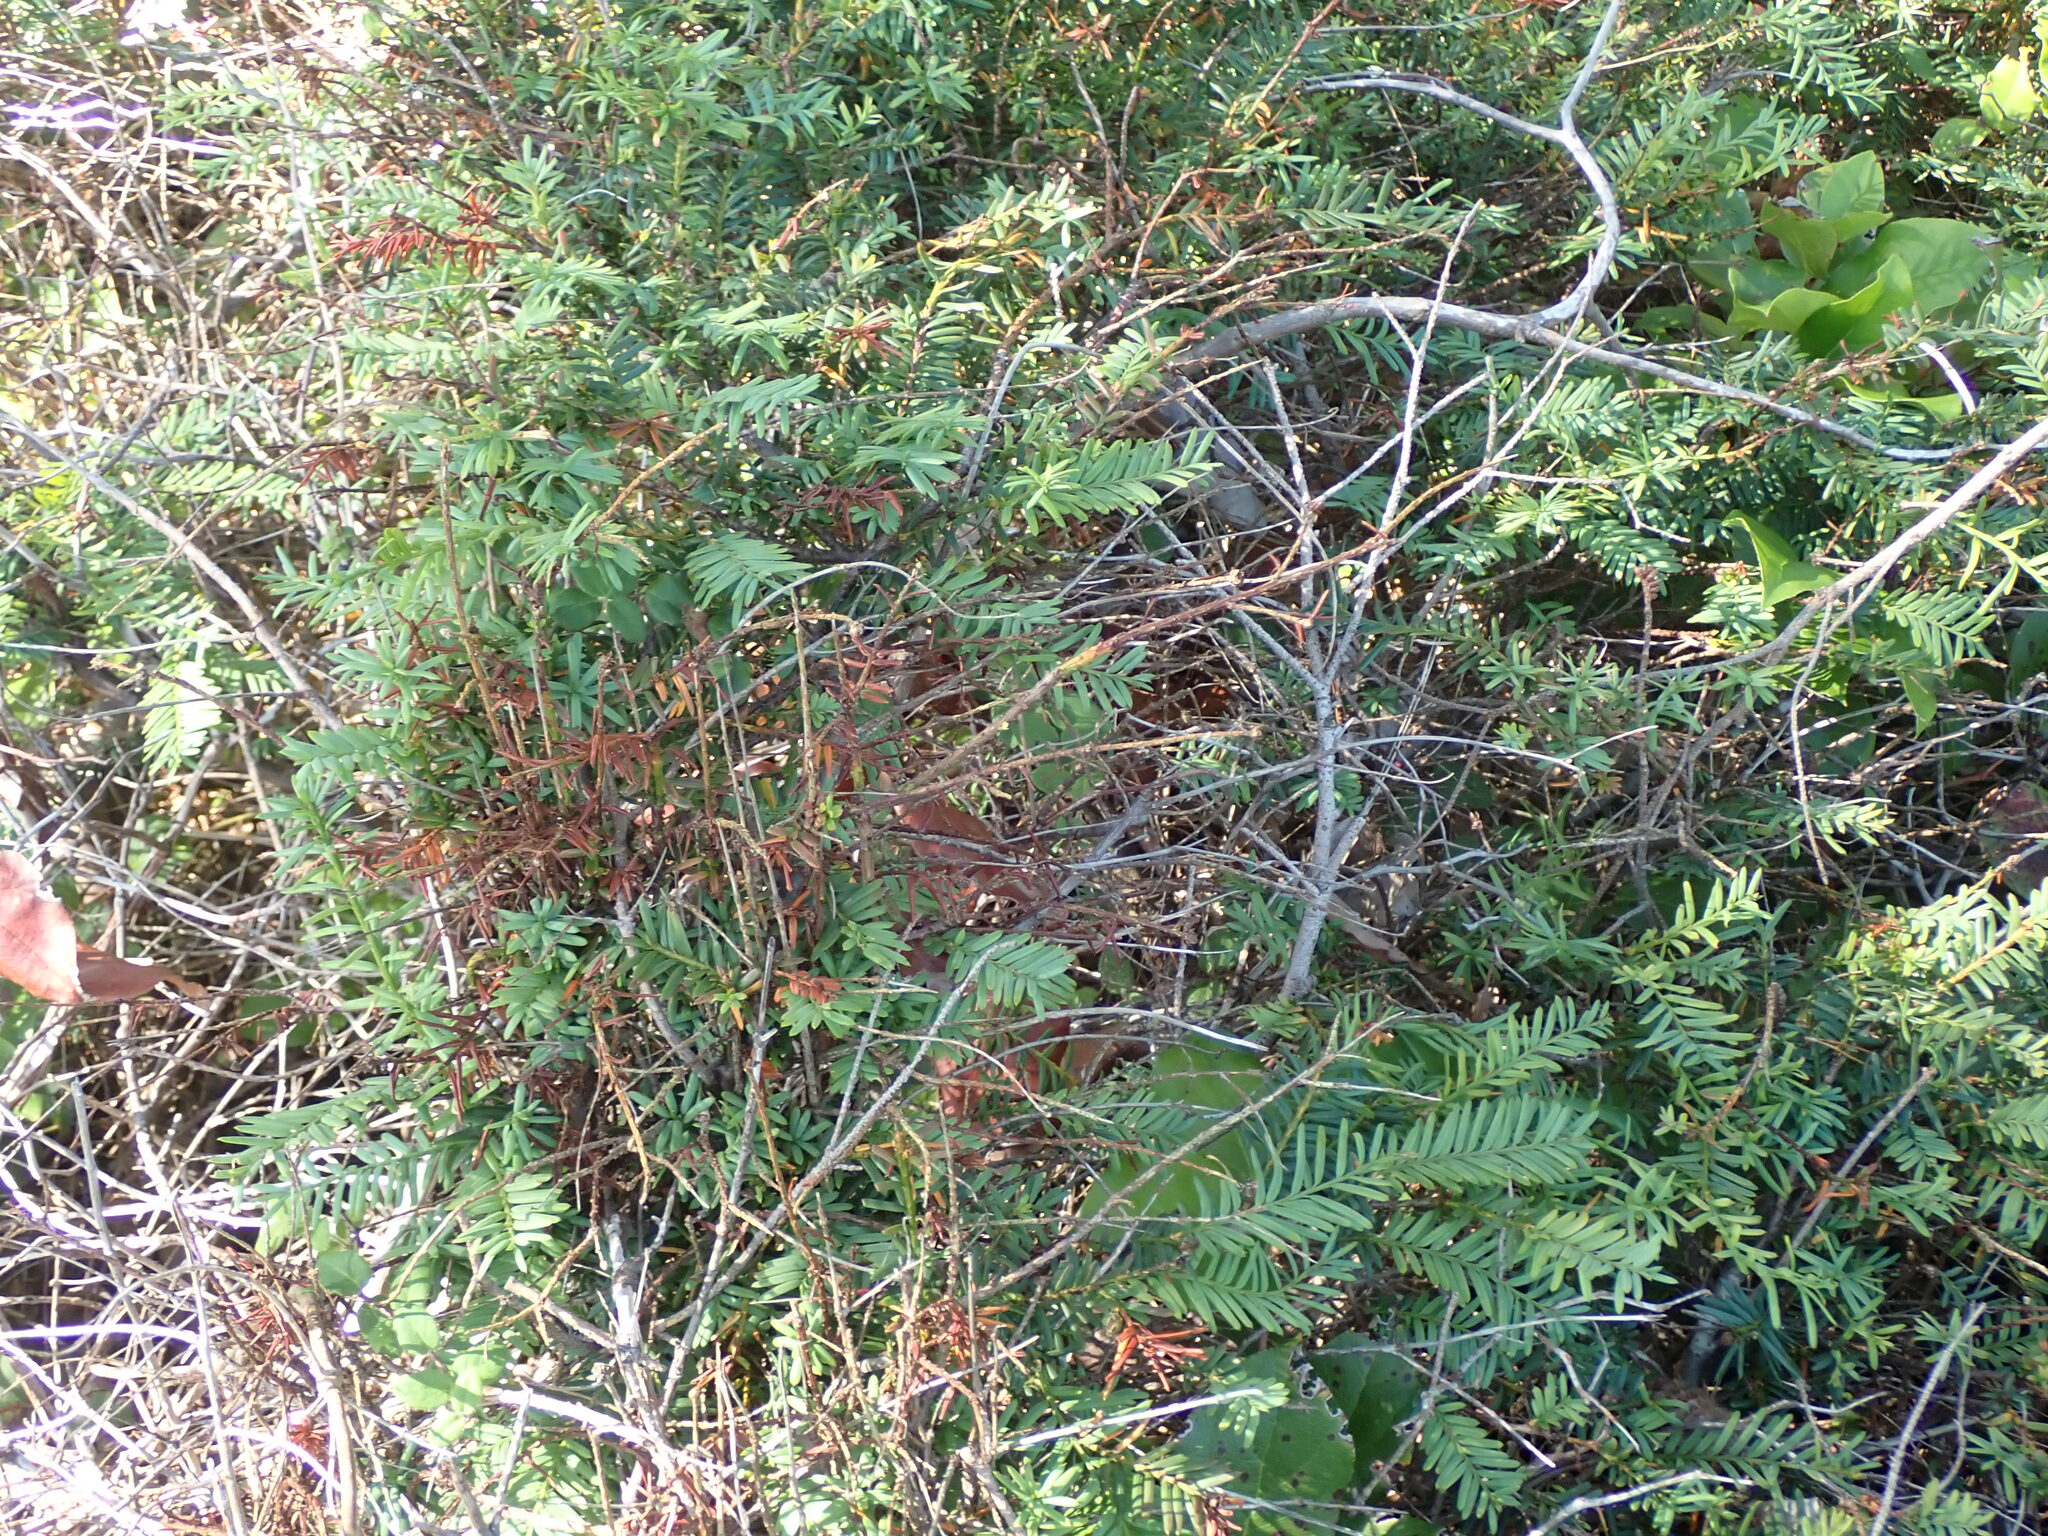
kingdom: Plantae
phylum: Tracheophyta
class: Pinopsida
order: Pinales
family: Taxaceae
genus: Taxus
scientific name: Taxus brevifolia
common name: Pacific yew
